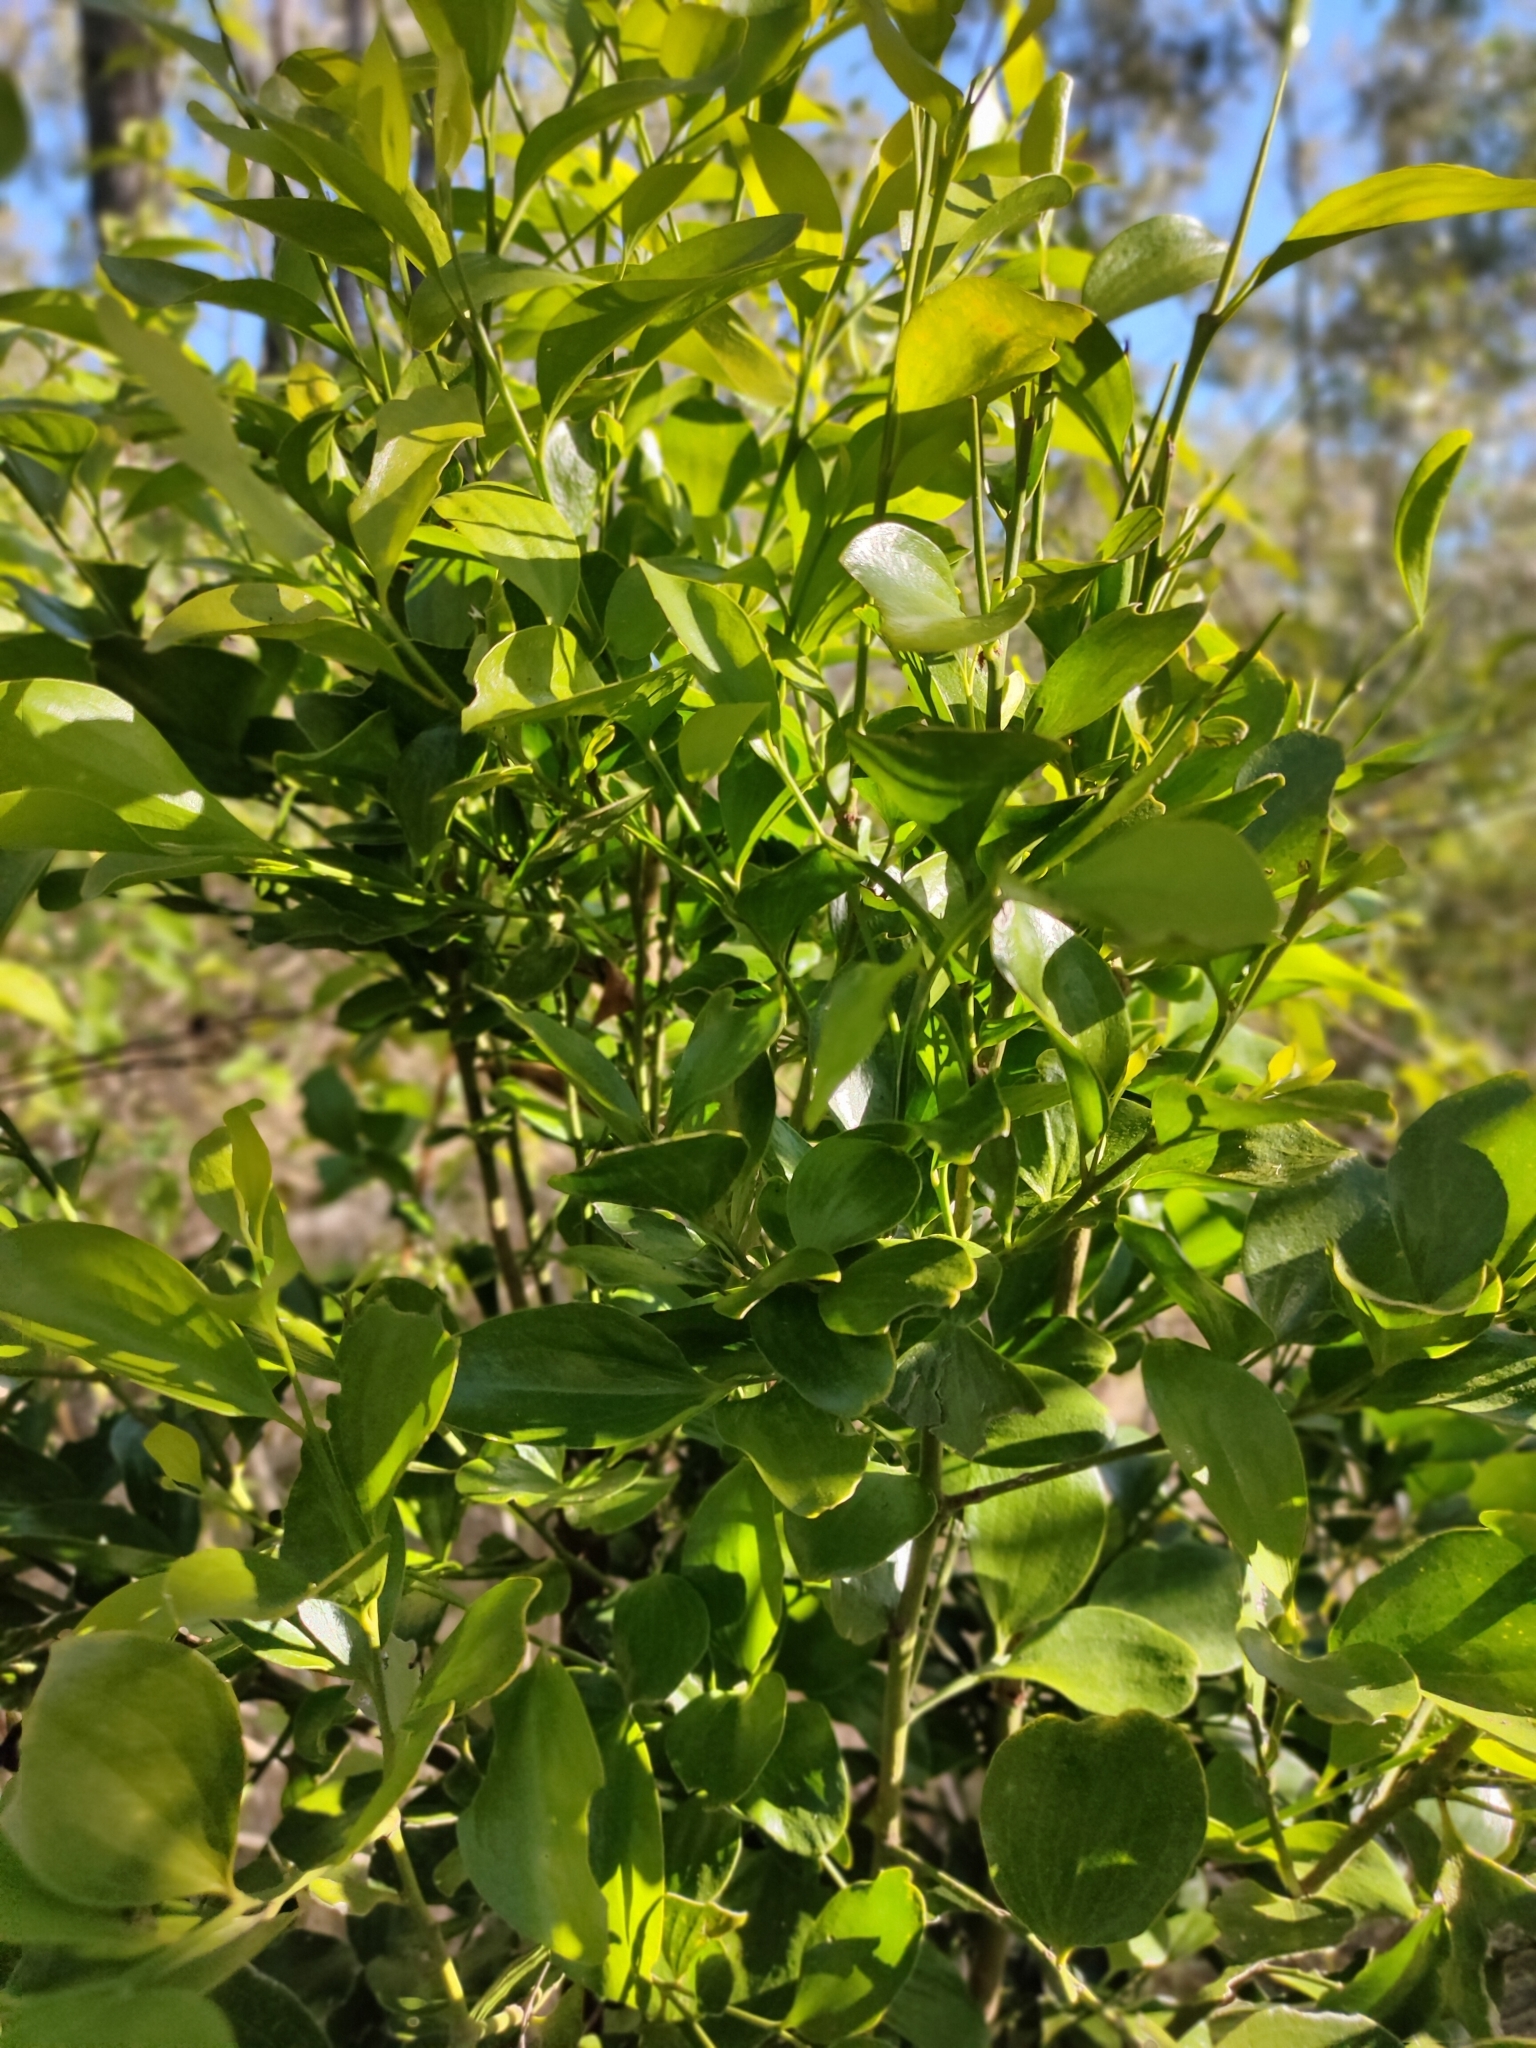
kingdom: Plantae
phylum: Tracheophyta
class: Magnoliopsida
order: Santalales
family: Santalaceae
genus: Exocarpos
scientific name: Exocarpos latifolius
